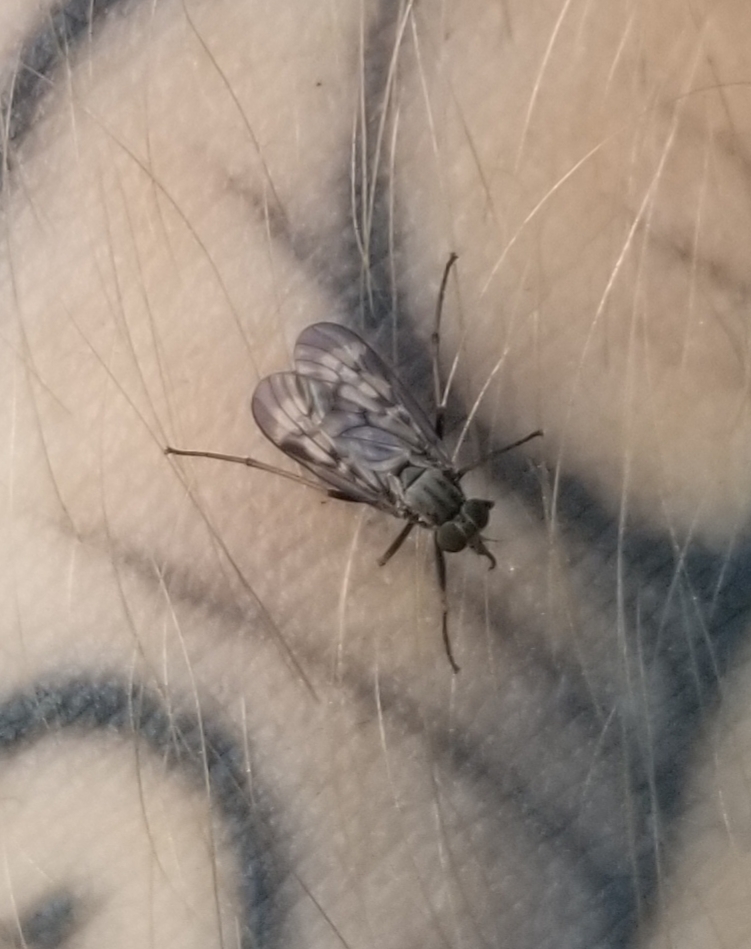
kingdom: Animalia
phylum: Arthropoda
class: Insecta
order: Diptera
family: Rhagionidae
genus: Rhagio
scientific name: Rhagio punctipennis
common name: Lesser variegated snipe fly
